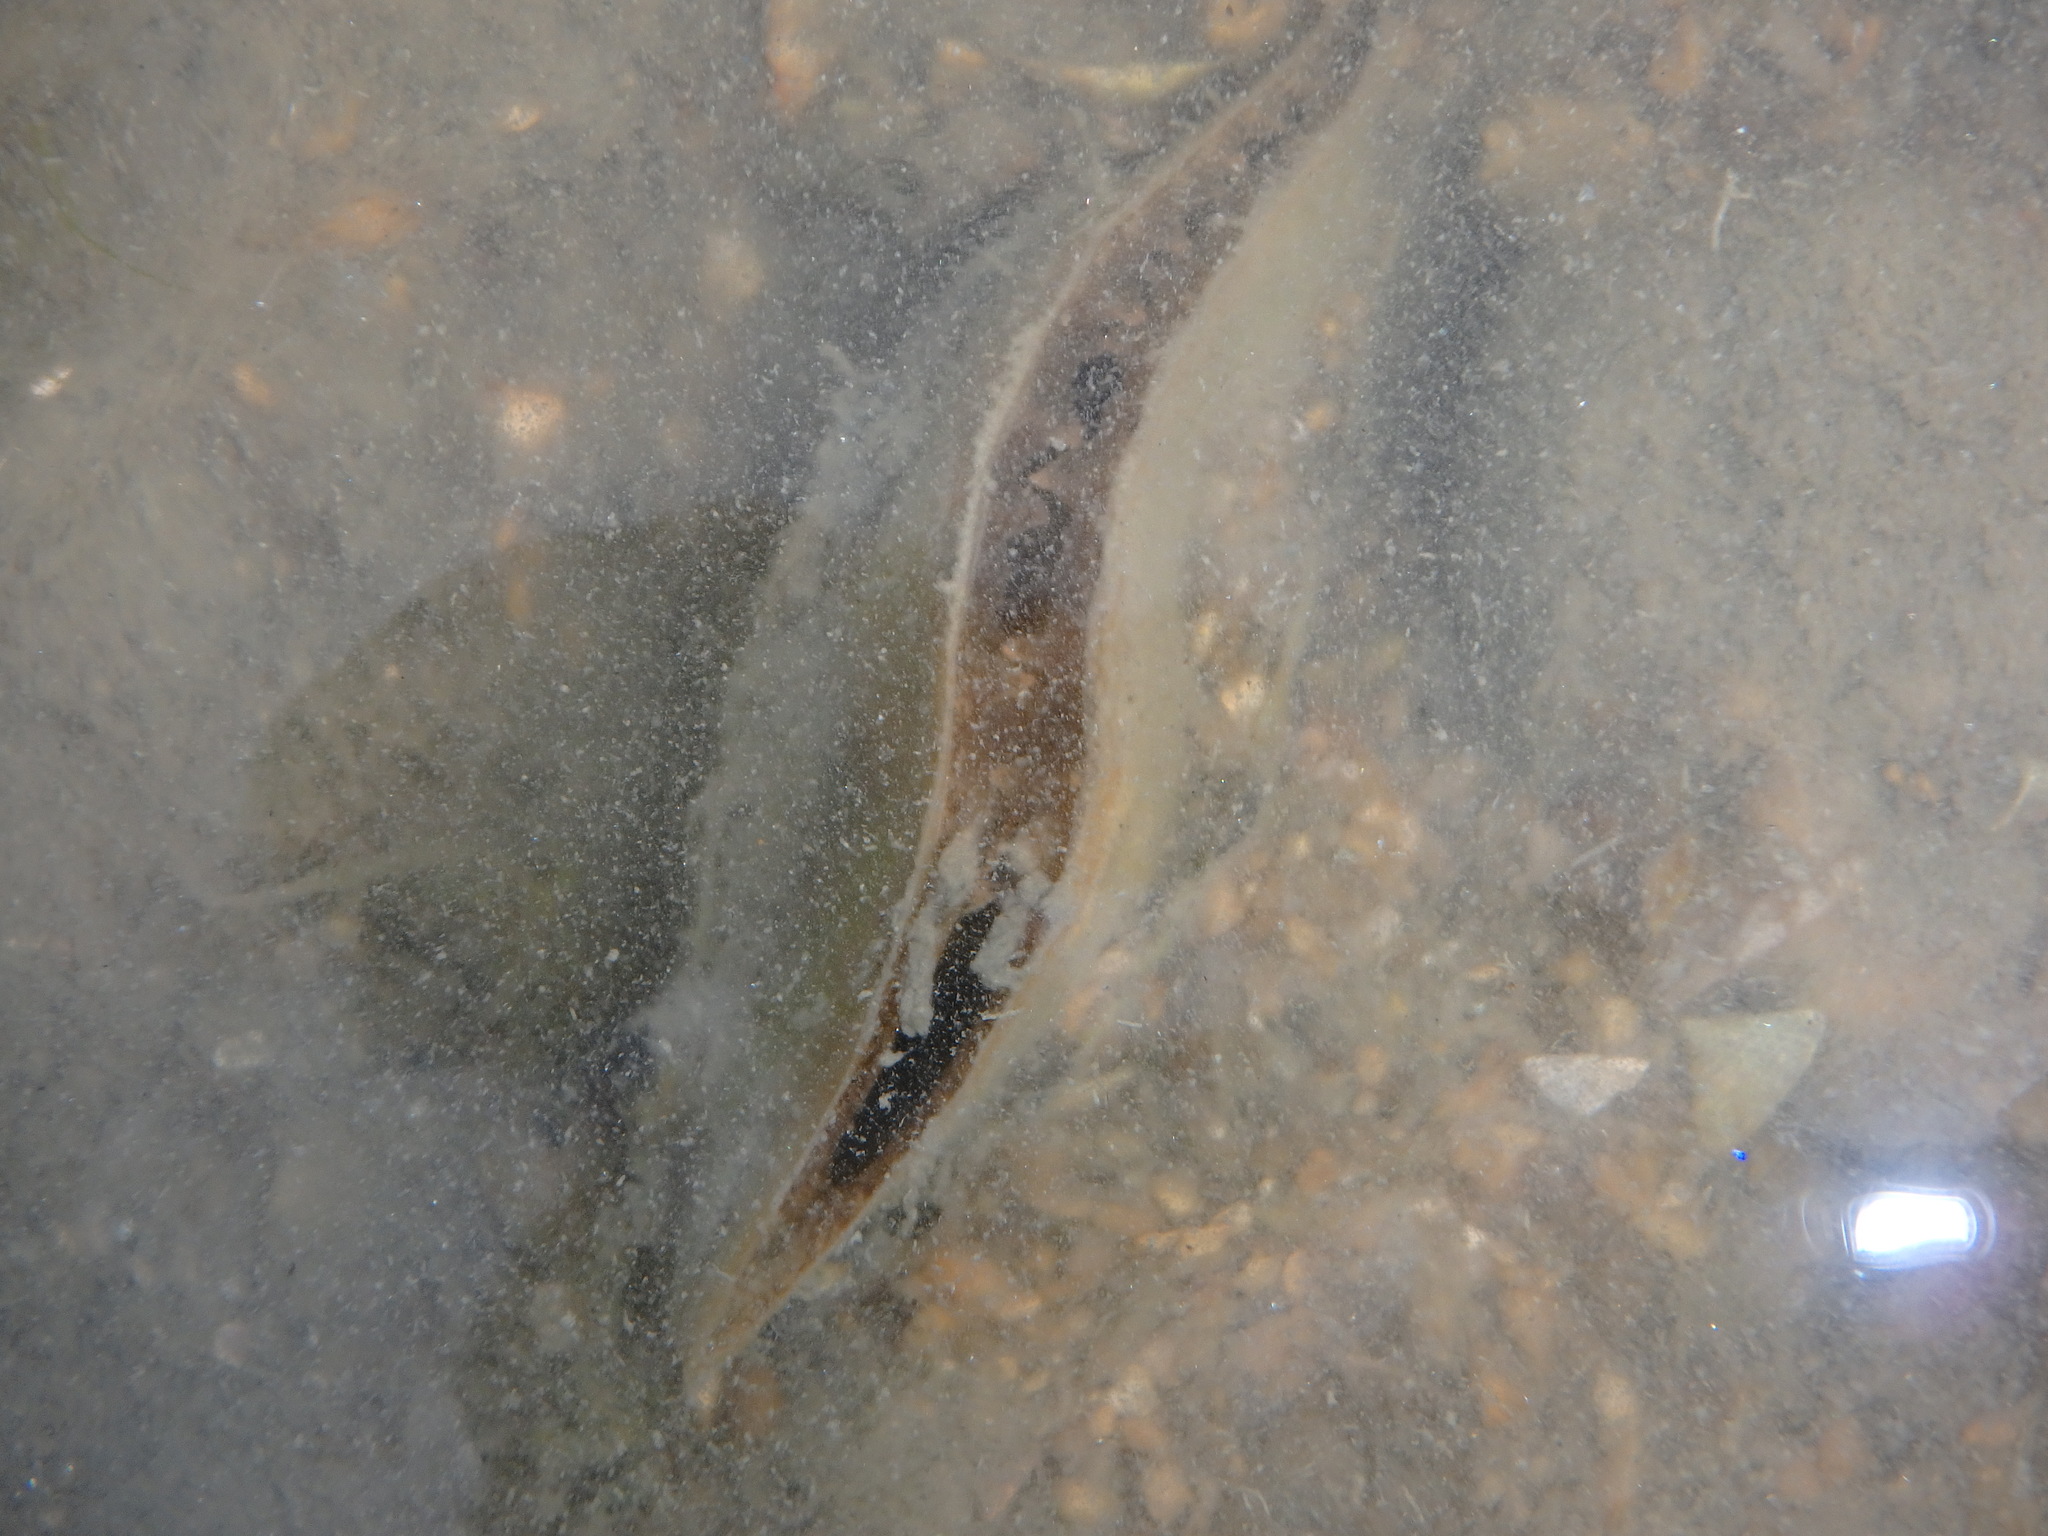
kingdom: Animalia
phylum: Mollusca
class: Bivalvia
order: Ostreida
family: Pinnidae
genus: Pinna
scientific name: Pinna bicolor
